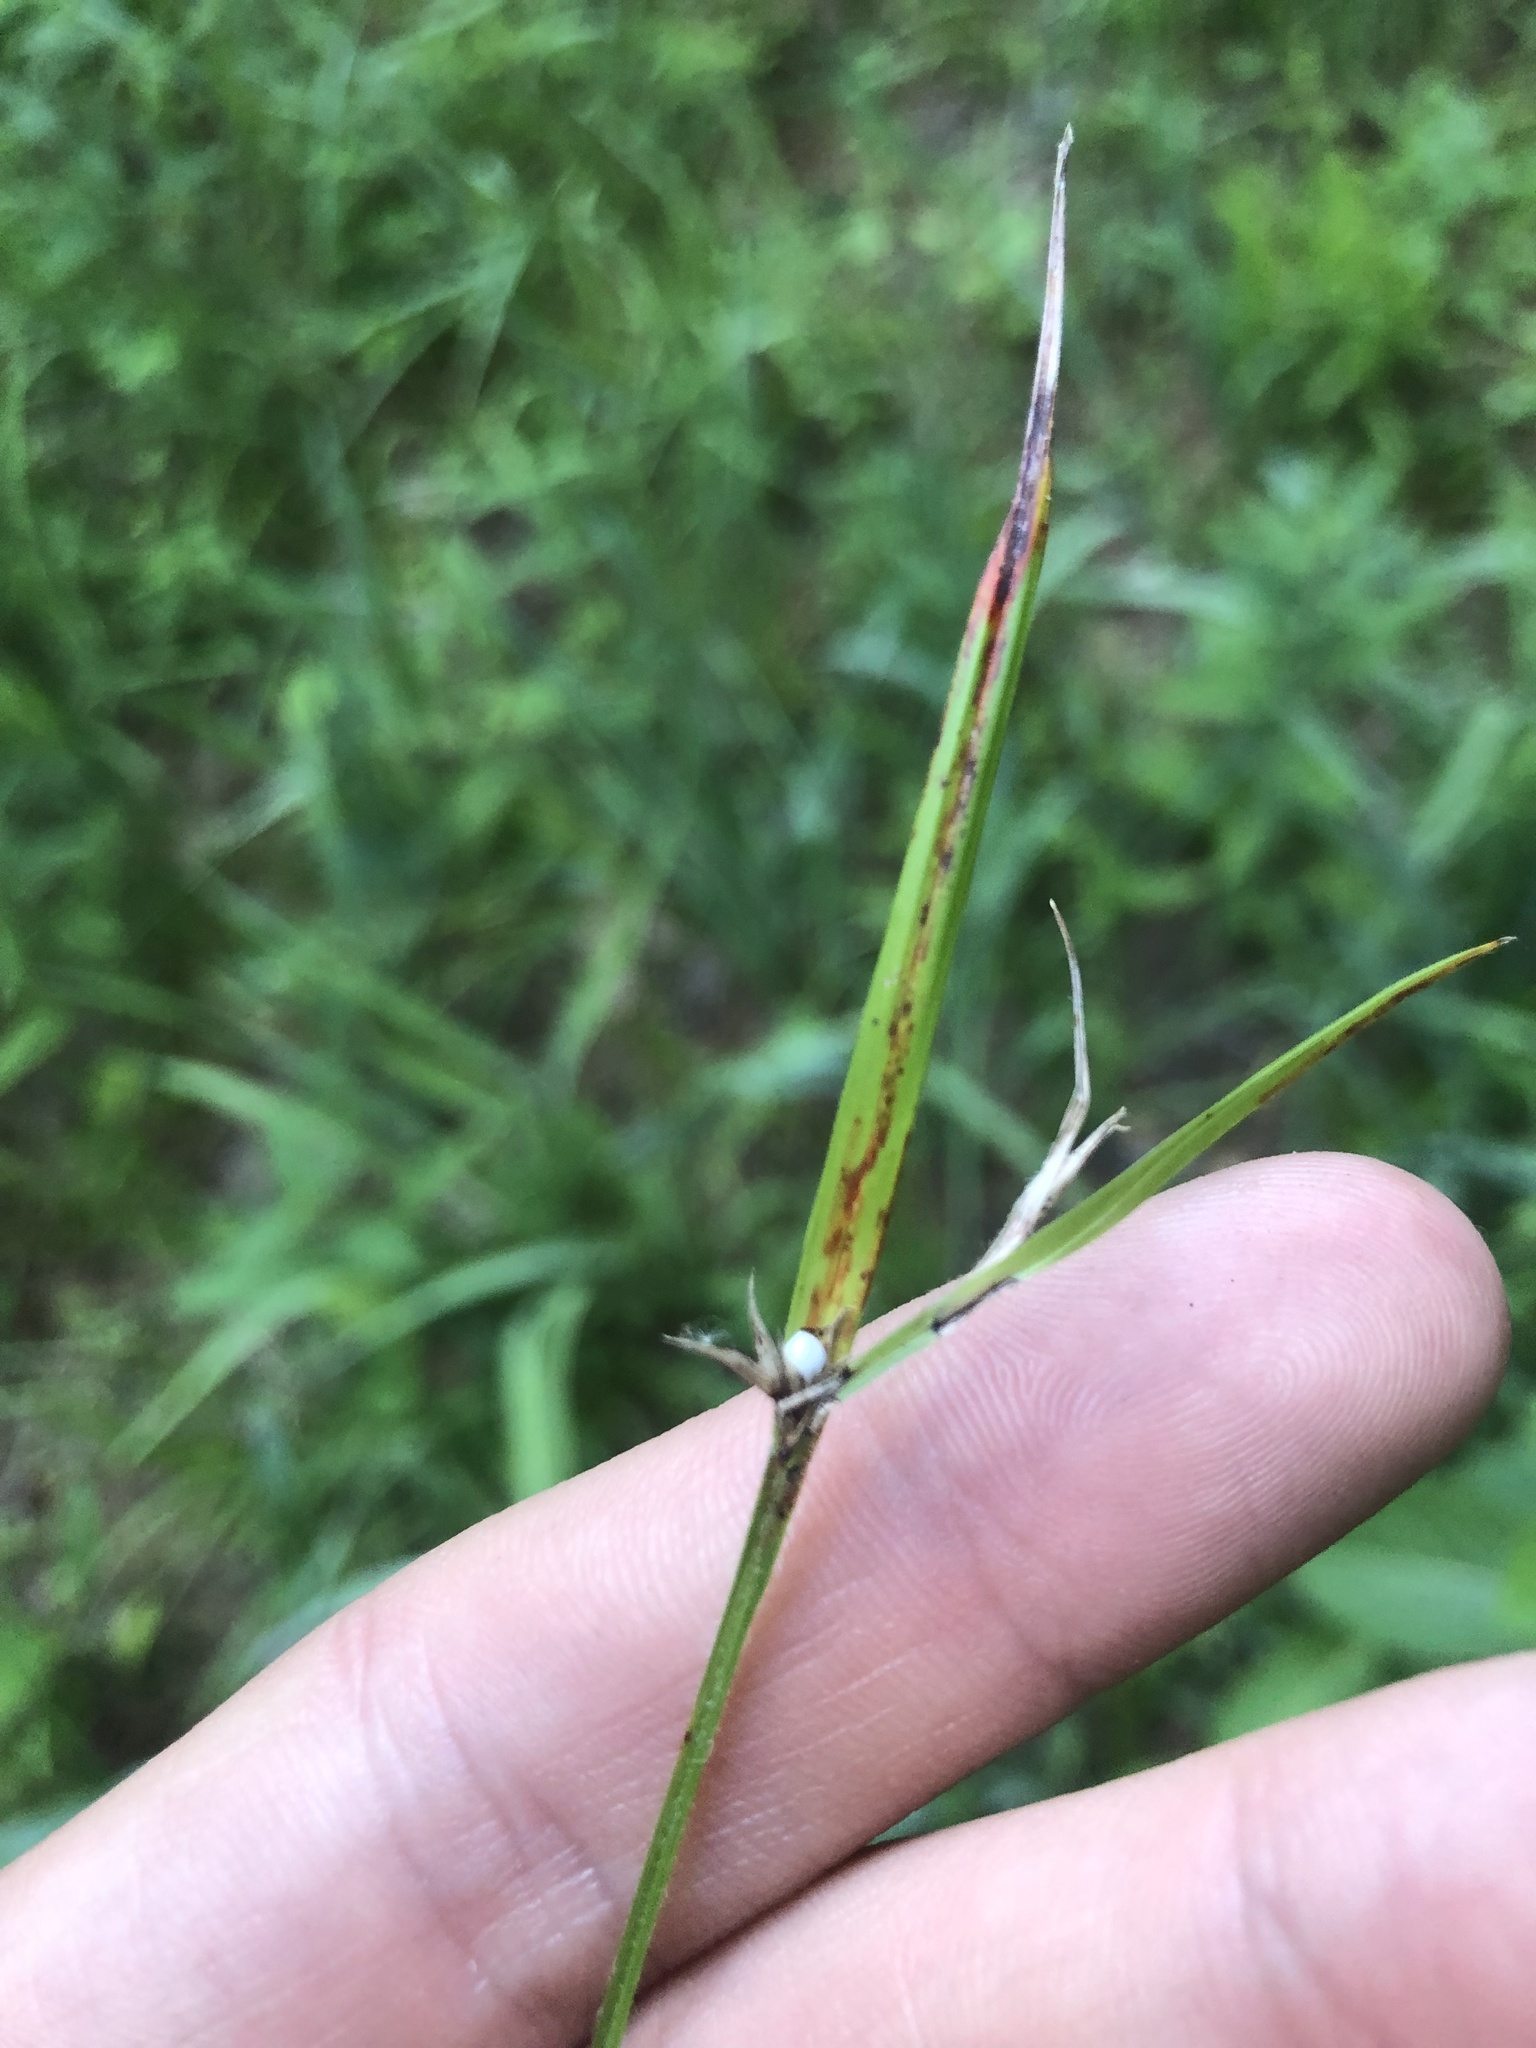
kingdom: Plantae
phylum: Tracheophyta
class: Liliopsida
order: Poales
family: Cyperaceae
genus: Scleria
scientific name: Scleria oligantha
